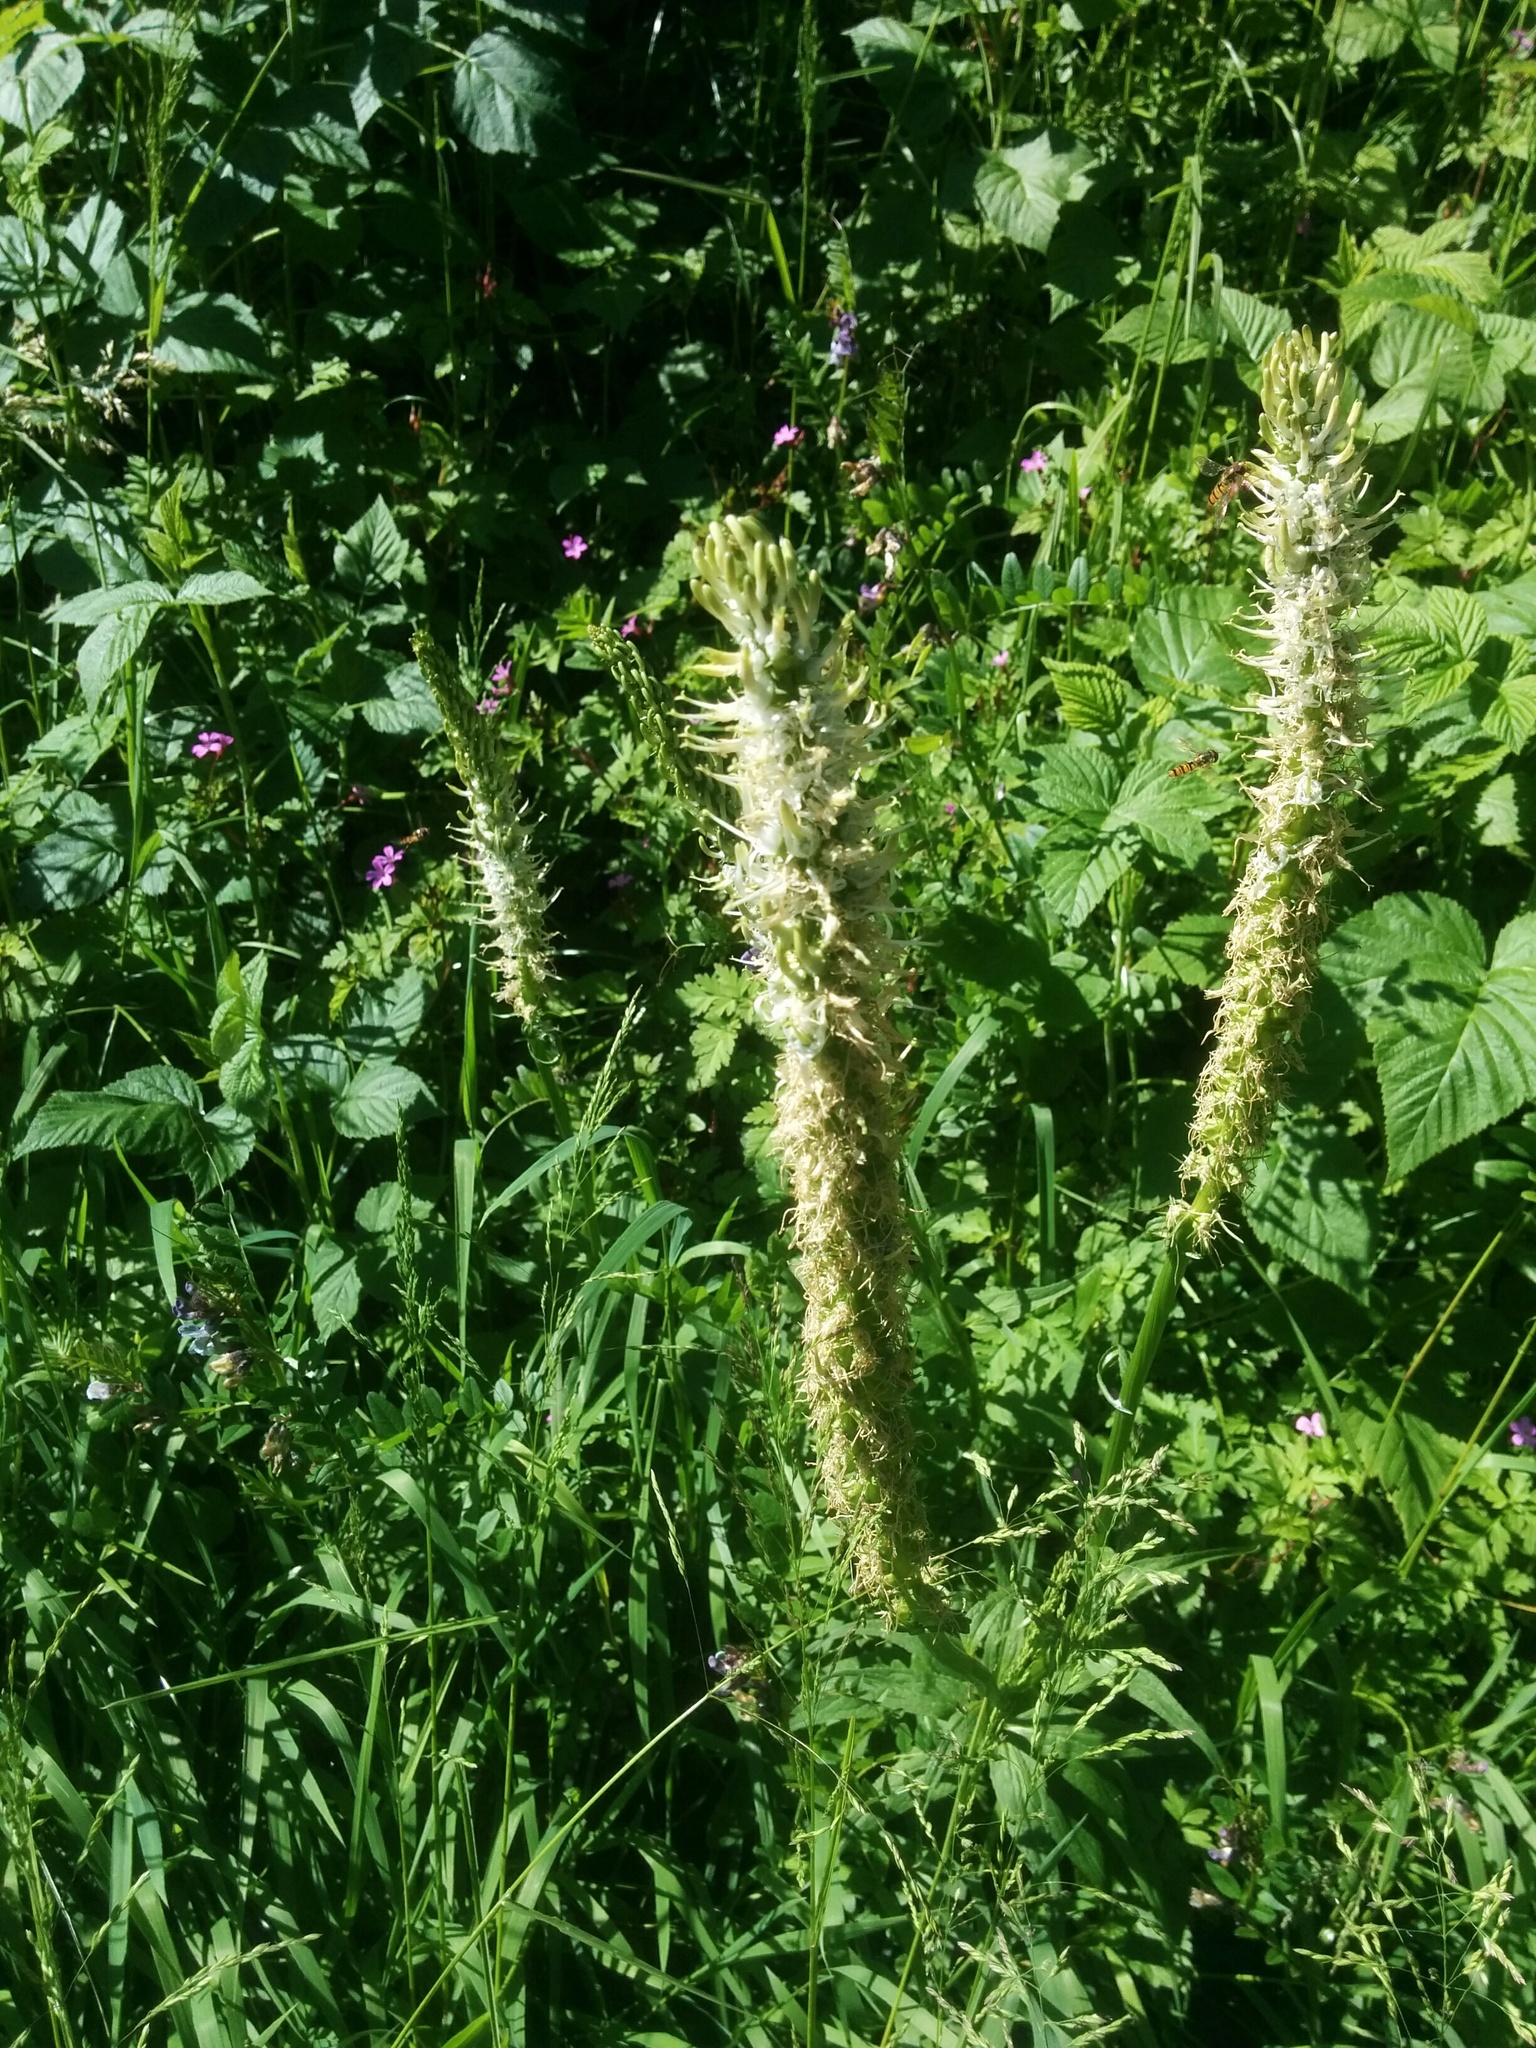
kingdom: Plantae
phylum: Tracheophyta
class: Magnoliopsida
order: Asterales
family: Campanulaceae
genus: Phyteuma
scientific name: Phyteuma spicatum
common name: Spiked rampion
